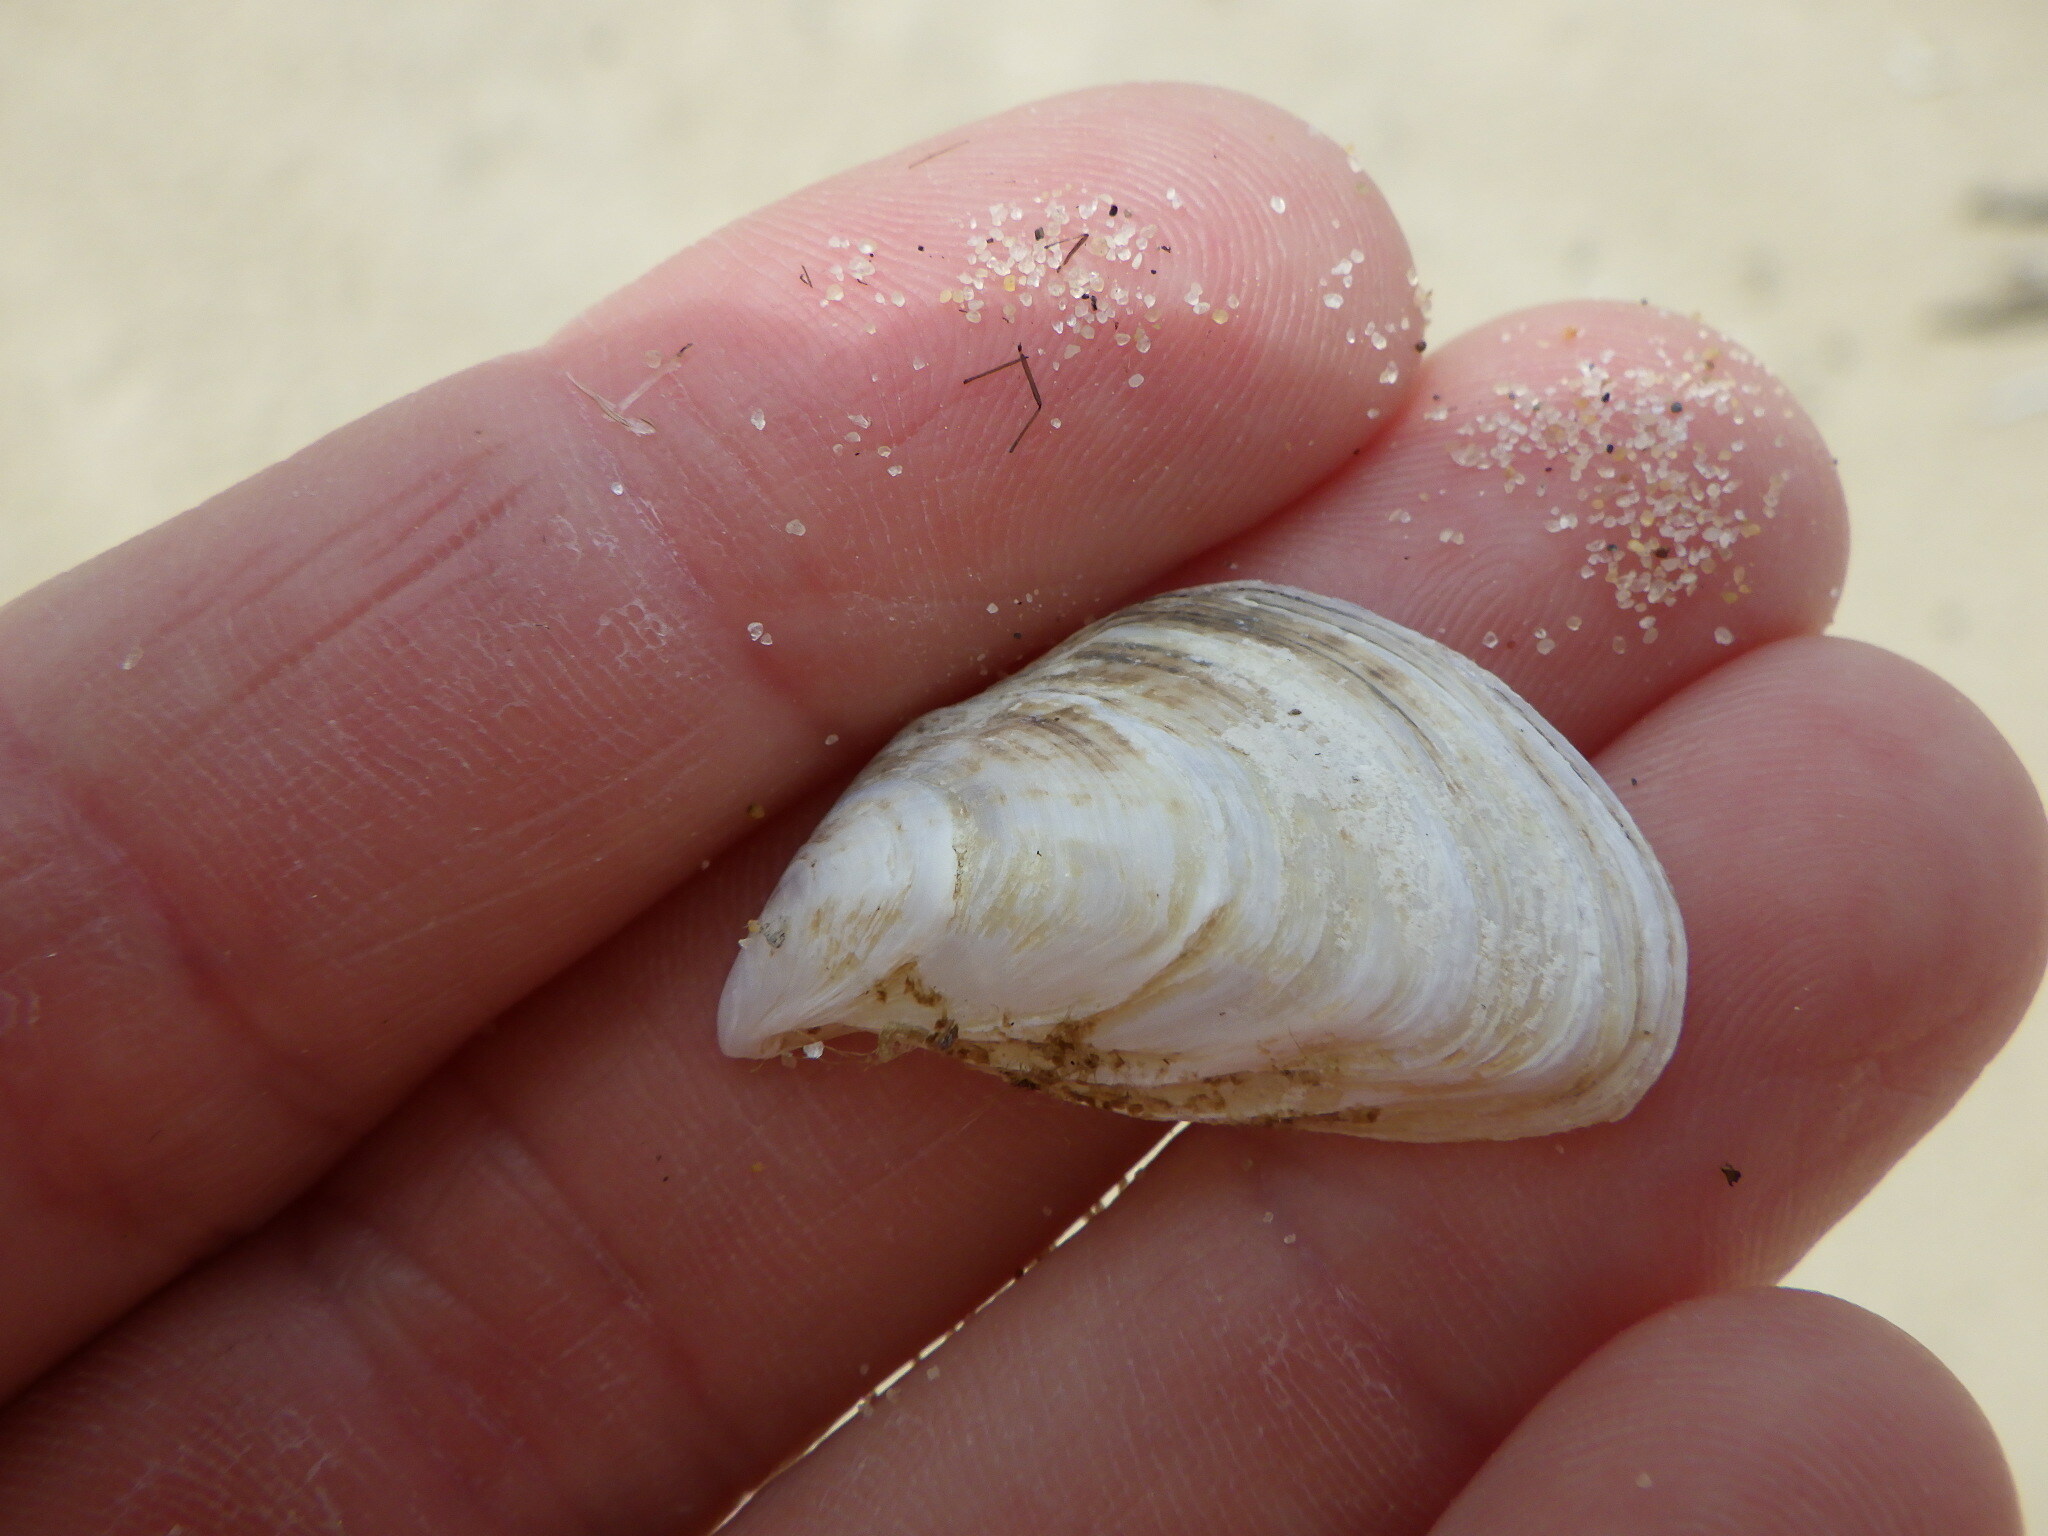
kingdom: Animalia
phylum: Mollusca
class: Bivalvia
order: Myida
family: Dreissenidae
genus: Dreissena
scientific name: Dreissena bugensis
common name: Quagga mussel
